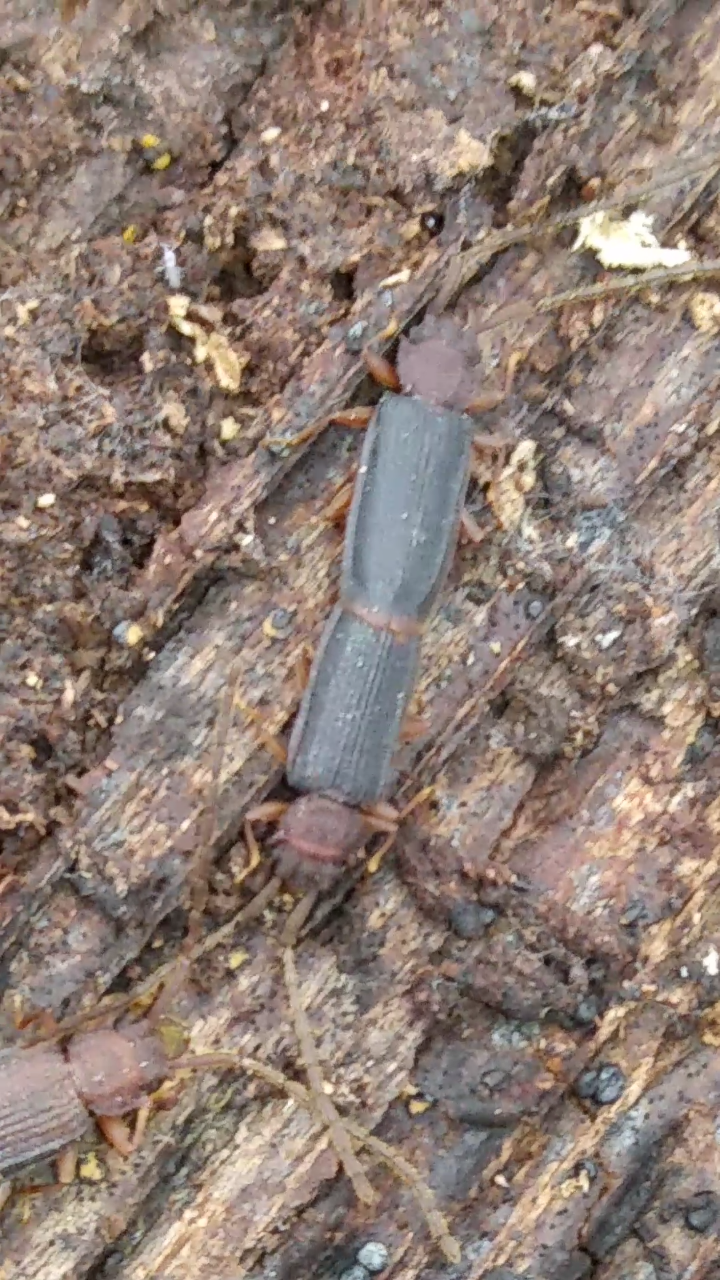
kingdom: Animalia
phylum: Arthropoda
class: Insecta
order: Coleoptera
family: Silvanidae
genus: Uleiota
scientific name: Uleiota dubia
